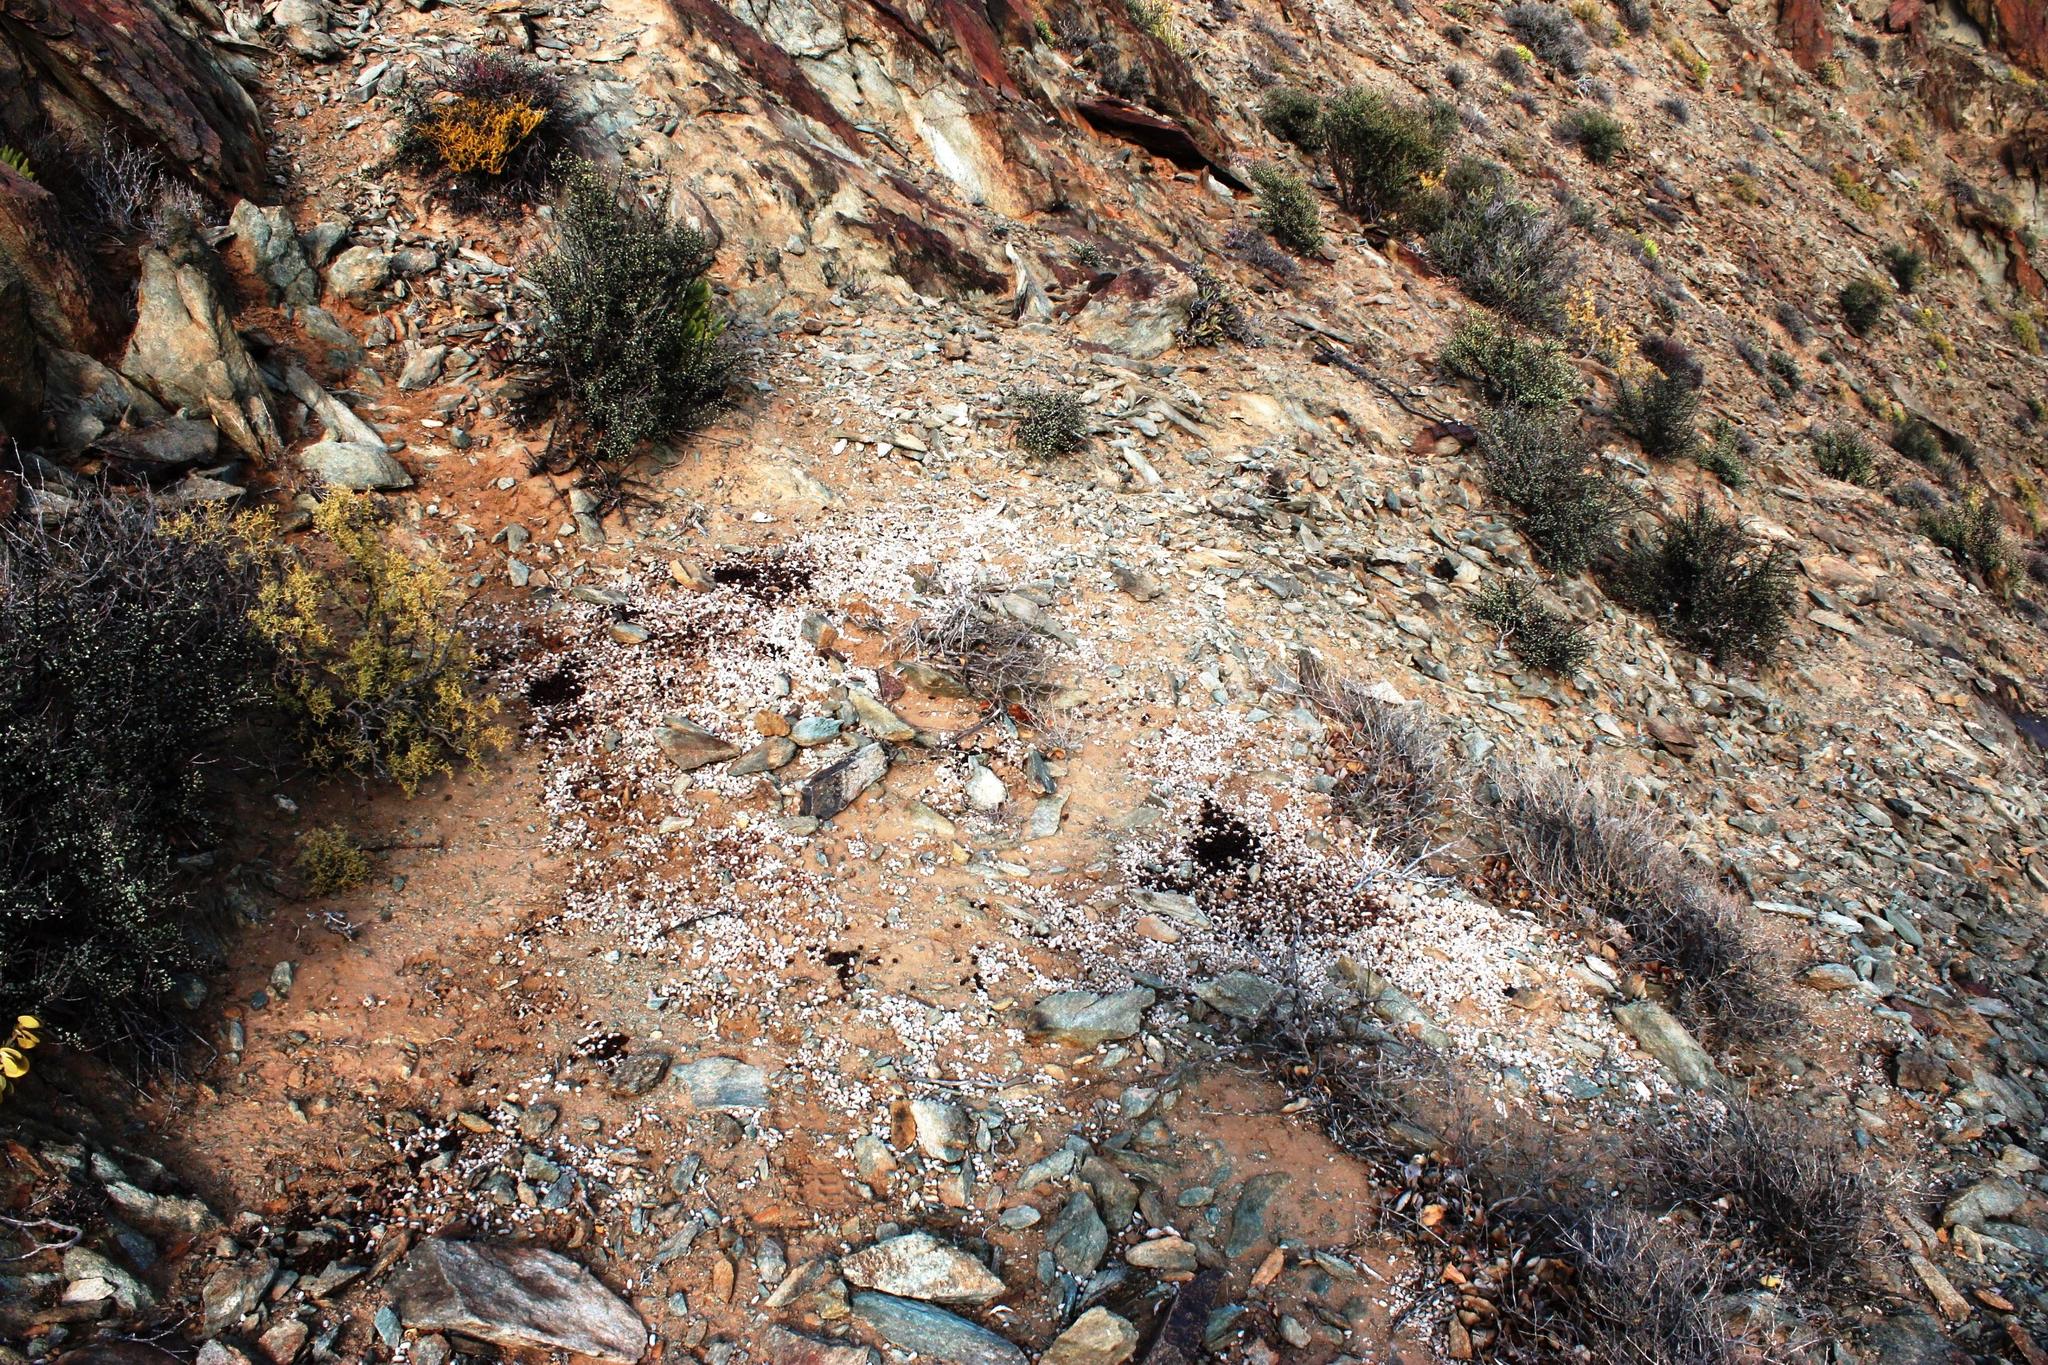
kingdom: Animalia
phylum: Chordata
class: Mammalia
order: Lagomorpha
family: Leporidae
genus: Pronolagus
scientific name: Pronolagus rupestris
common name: Smith's red rock hare
